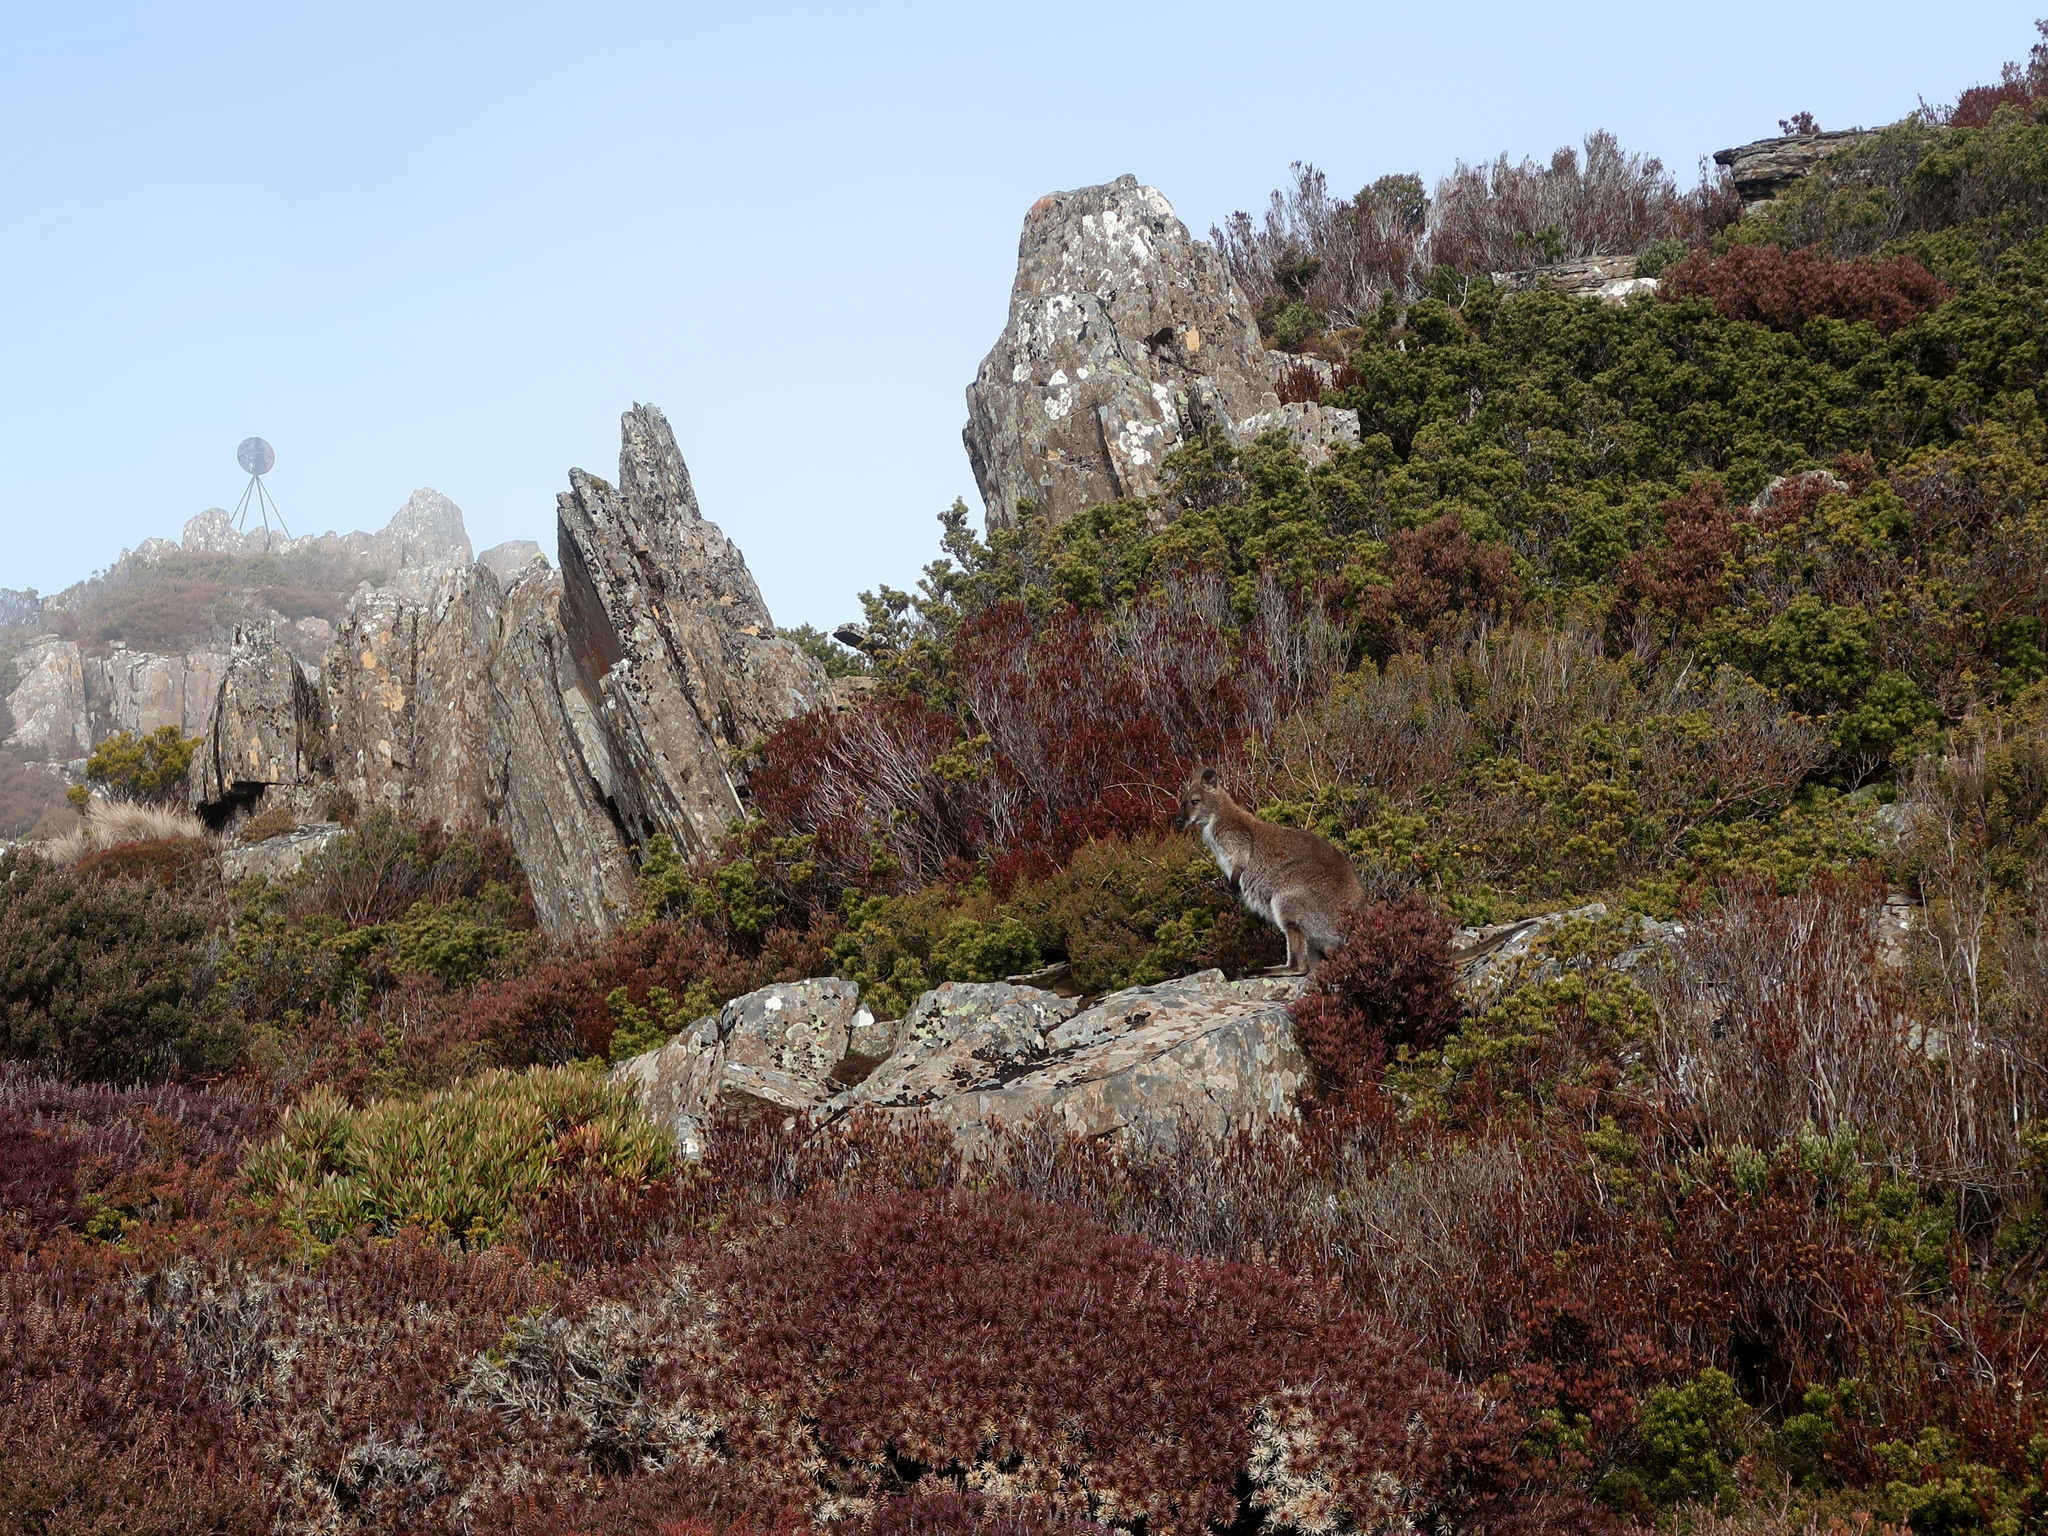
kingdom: Animalia
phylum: Chordata
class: Mammalia
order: Diprotodontia
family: Macropodidae
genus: Notamacropus
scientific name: Notamacropus rufogriseus
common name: Red-necked wallaby
